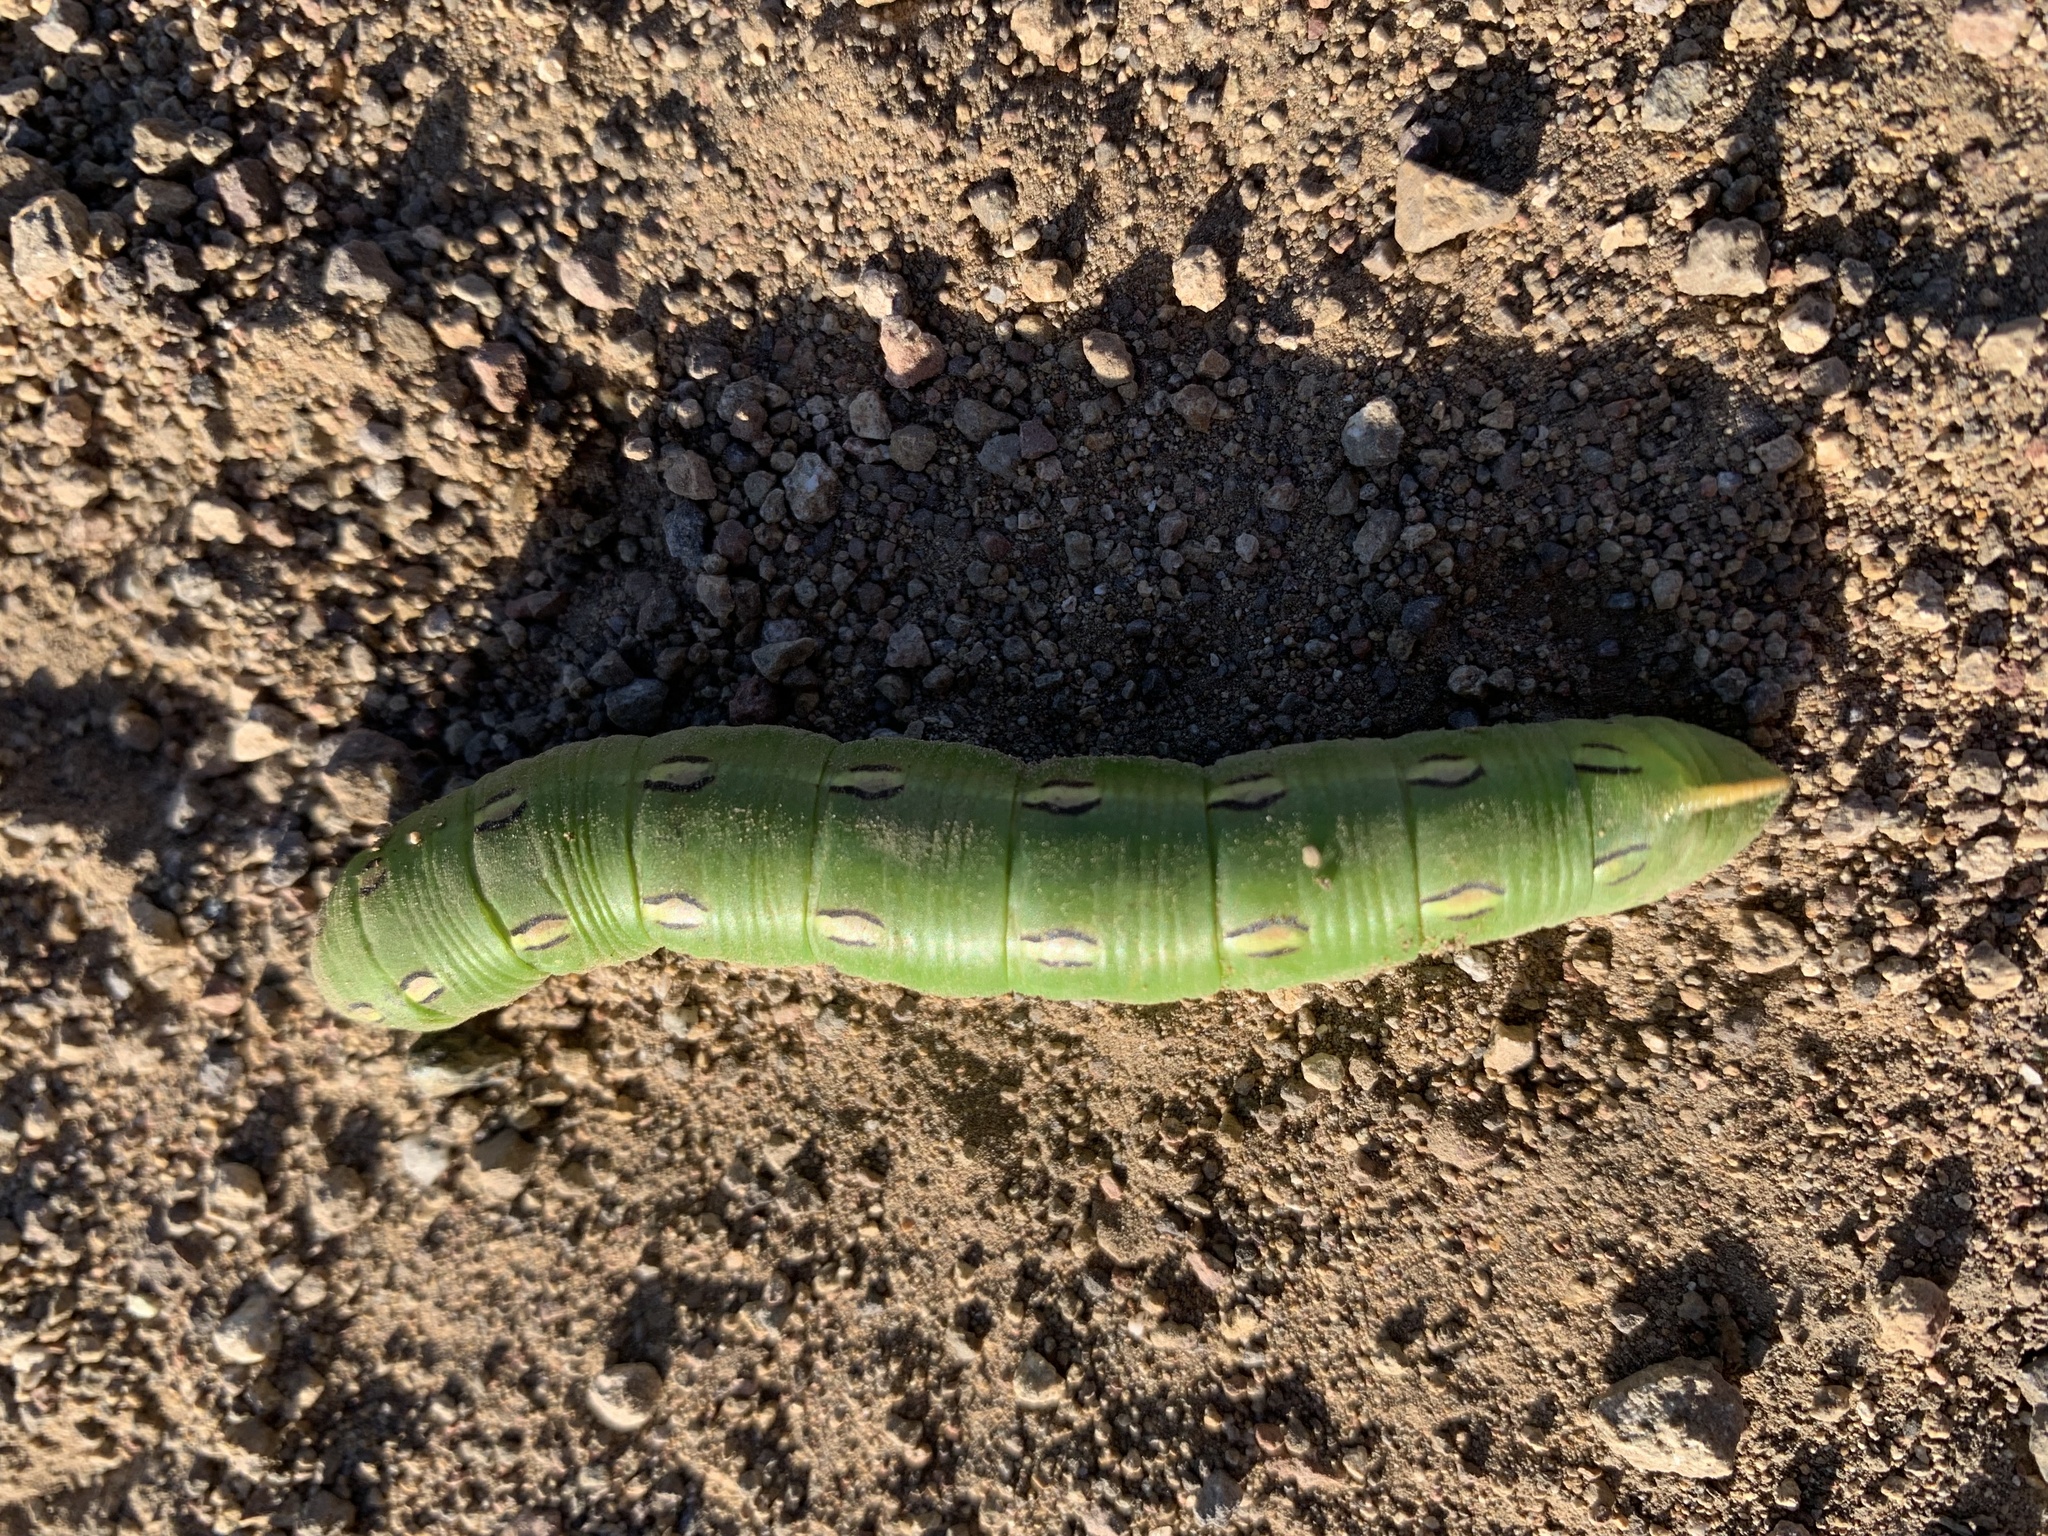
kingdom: Animalia
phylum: Arthropoda
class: Insecta
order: Lepidoptera
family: Sphingidae
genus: Hyles
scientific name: Hyles lineata
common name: White-lined sphinx
